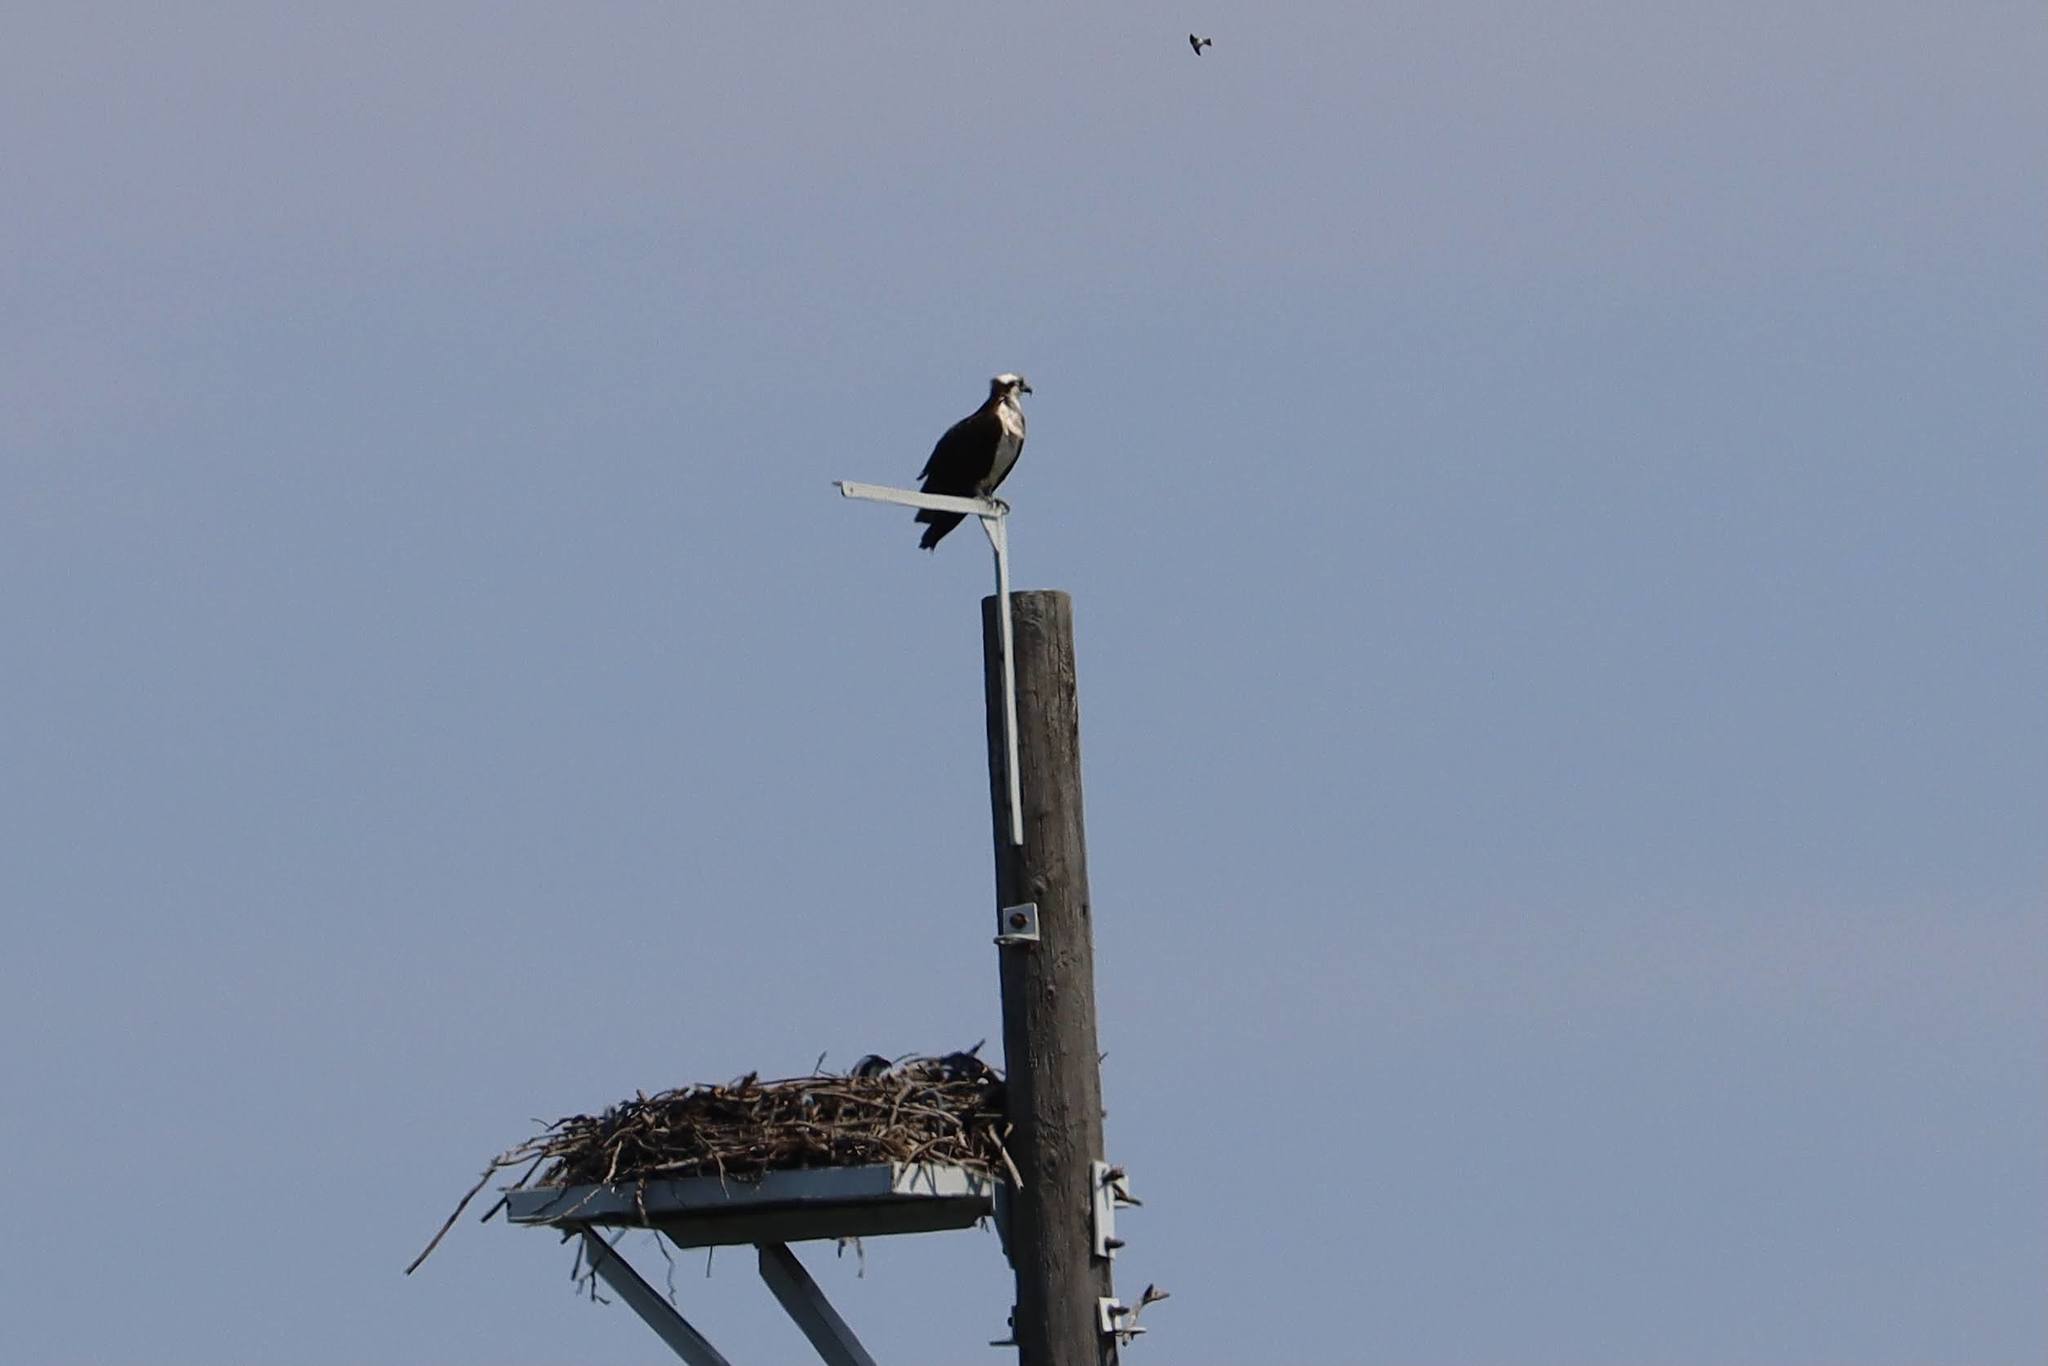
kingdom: Animalia
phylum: Chordata
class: Aves
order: Accipitriformes
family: Pandionidae
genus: Pandion
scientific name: Pandion haliaetus
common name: Osprey
